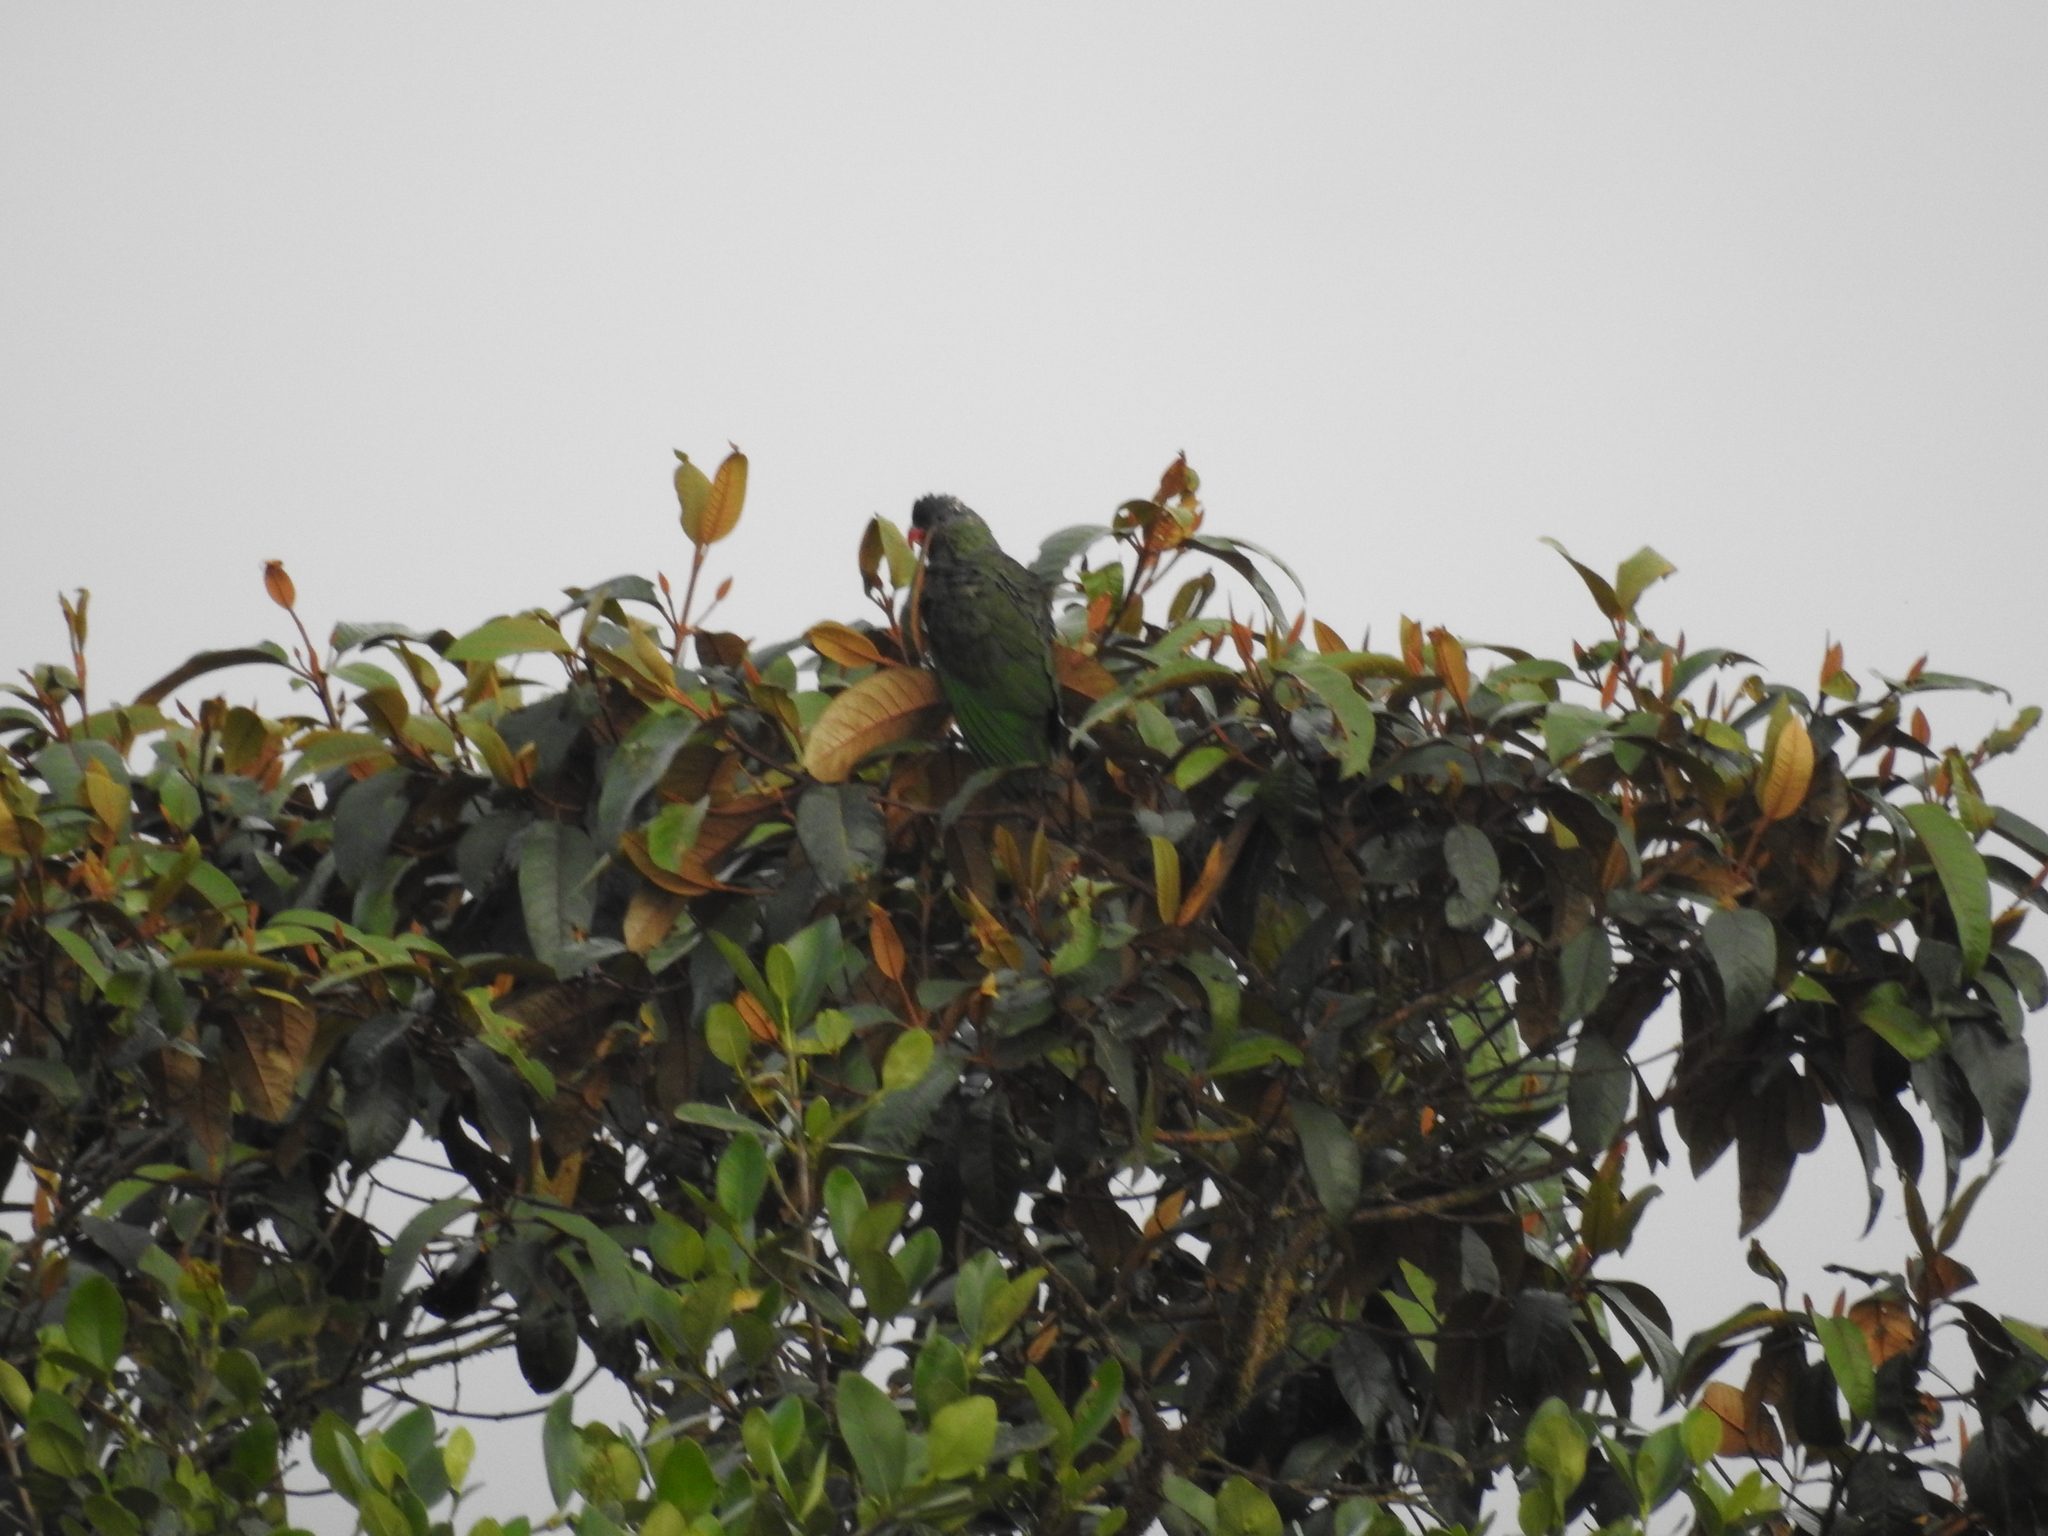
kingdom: Animalia
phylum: Chordata
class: Aves
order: Psittaciformes
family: Psittacidae
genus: Pionus
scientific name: Pionus sordidus
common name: Red-billed parrot
